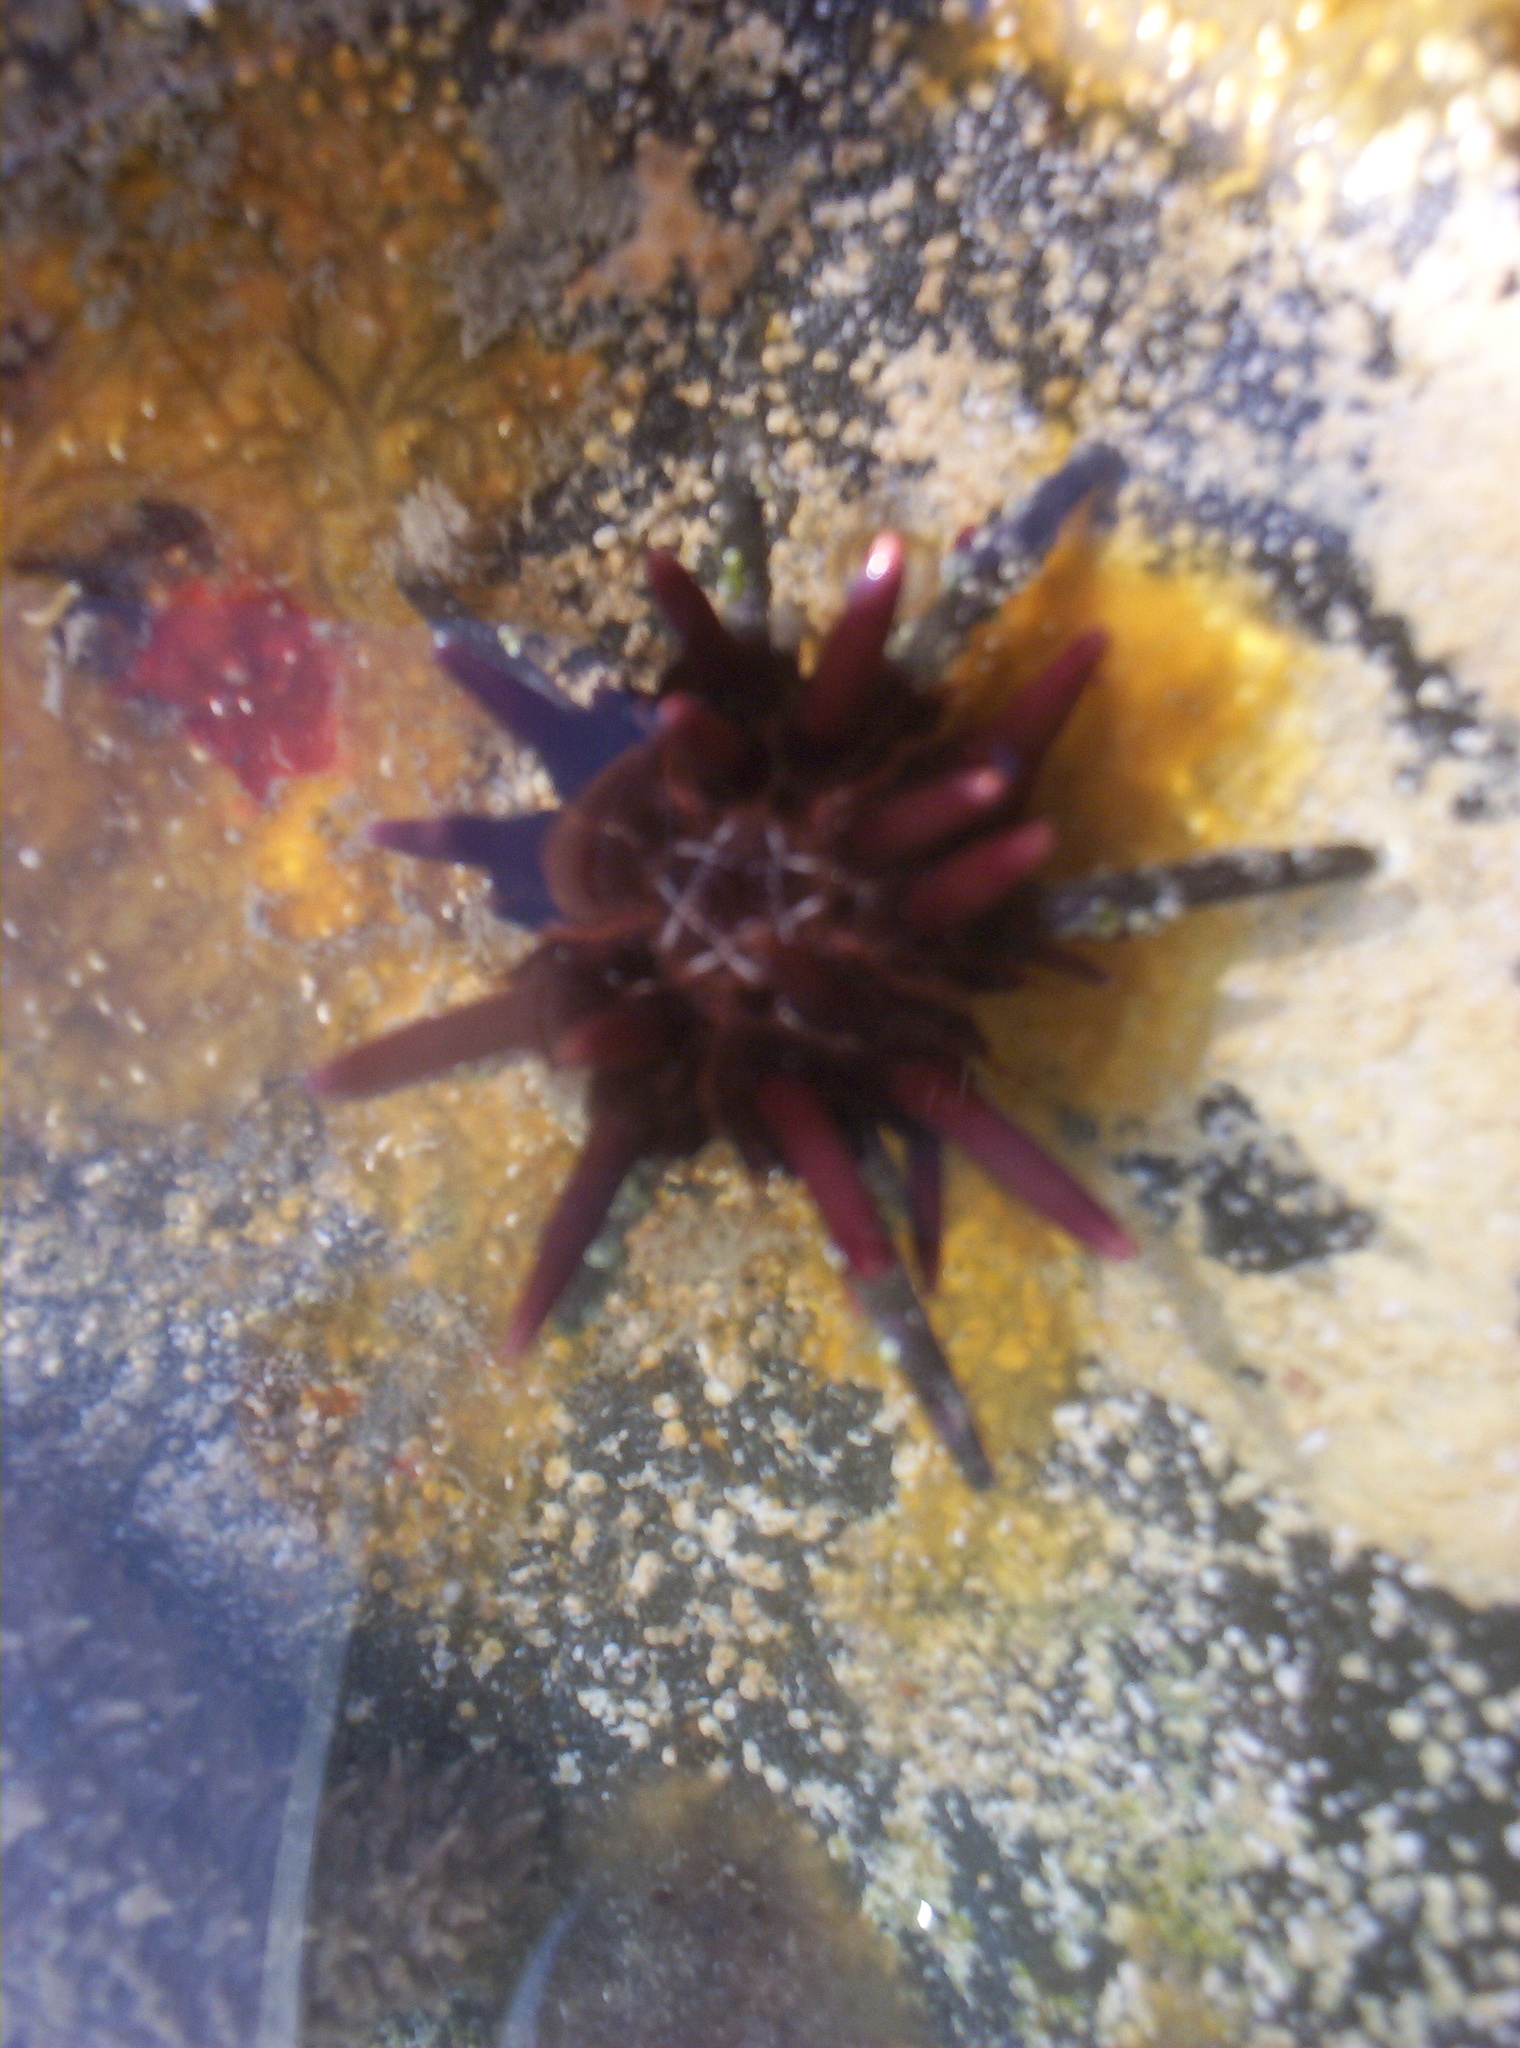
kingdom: Animalia
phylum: Echinodermata
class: Echinoidea
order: Cidaroida
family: Cidaridae
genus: Eucidaris
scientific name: Eucidaris thouarsii
